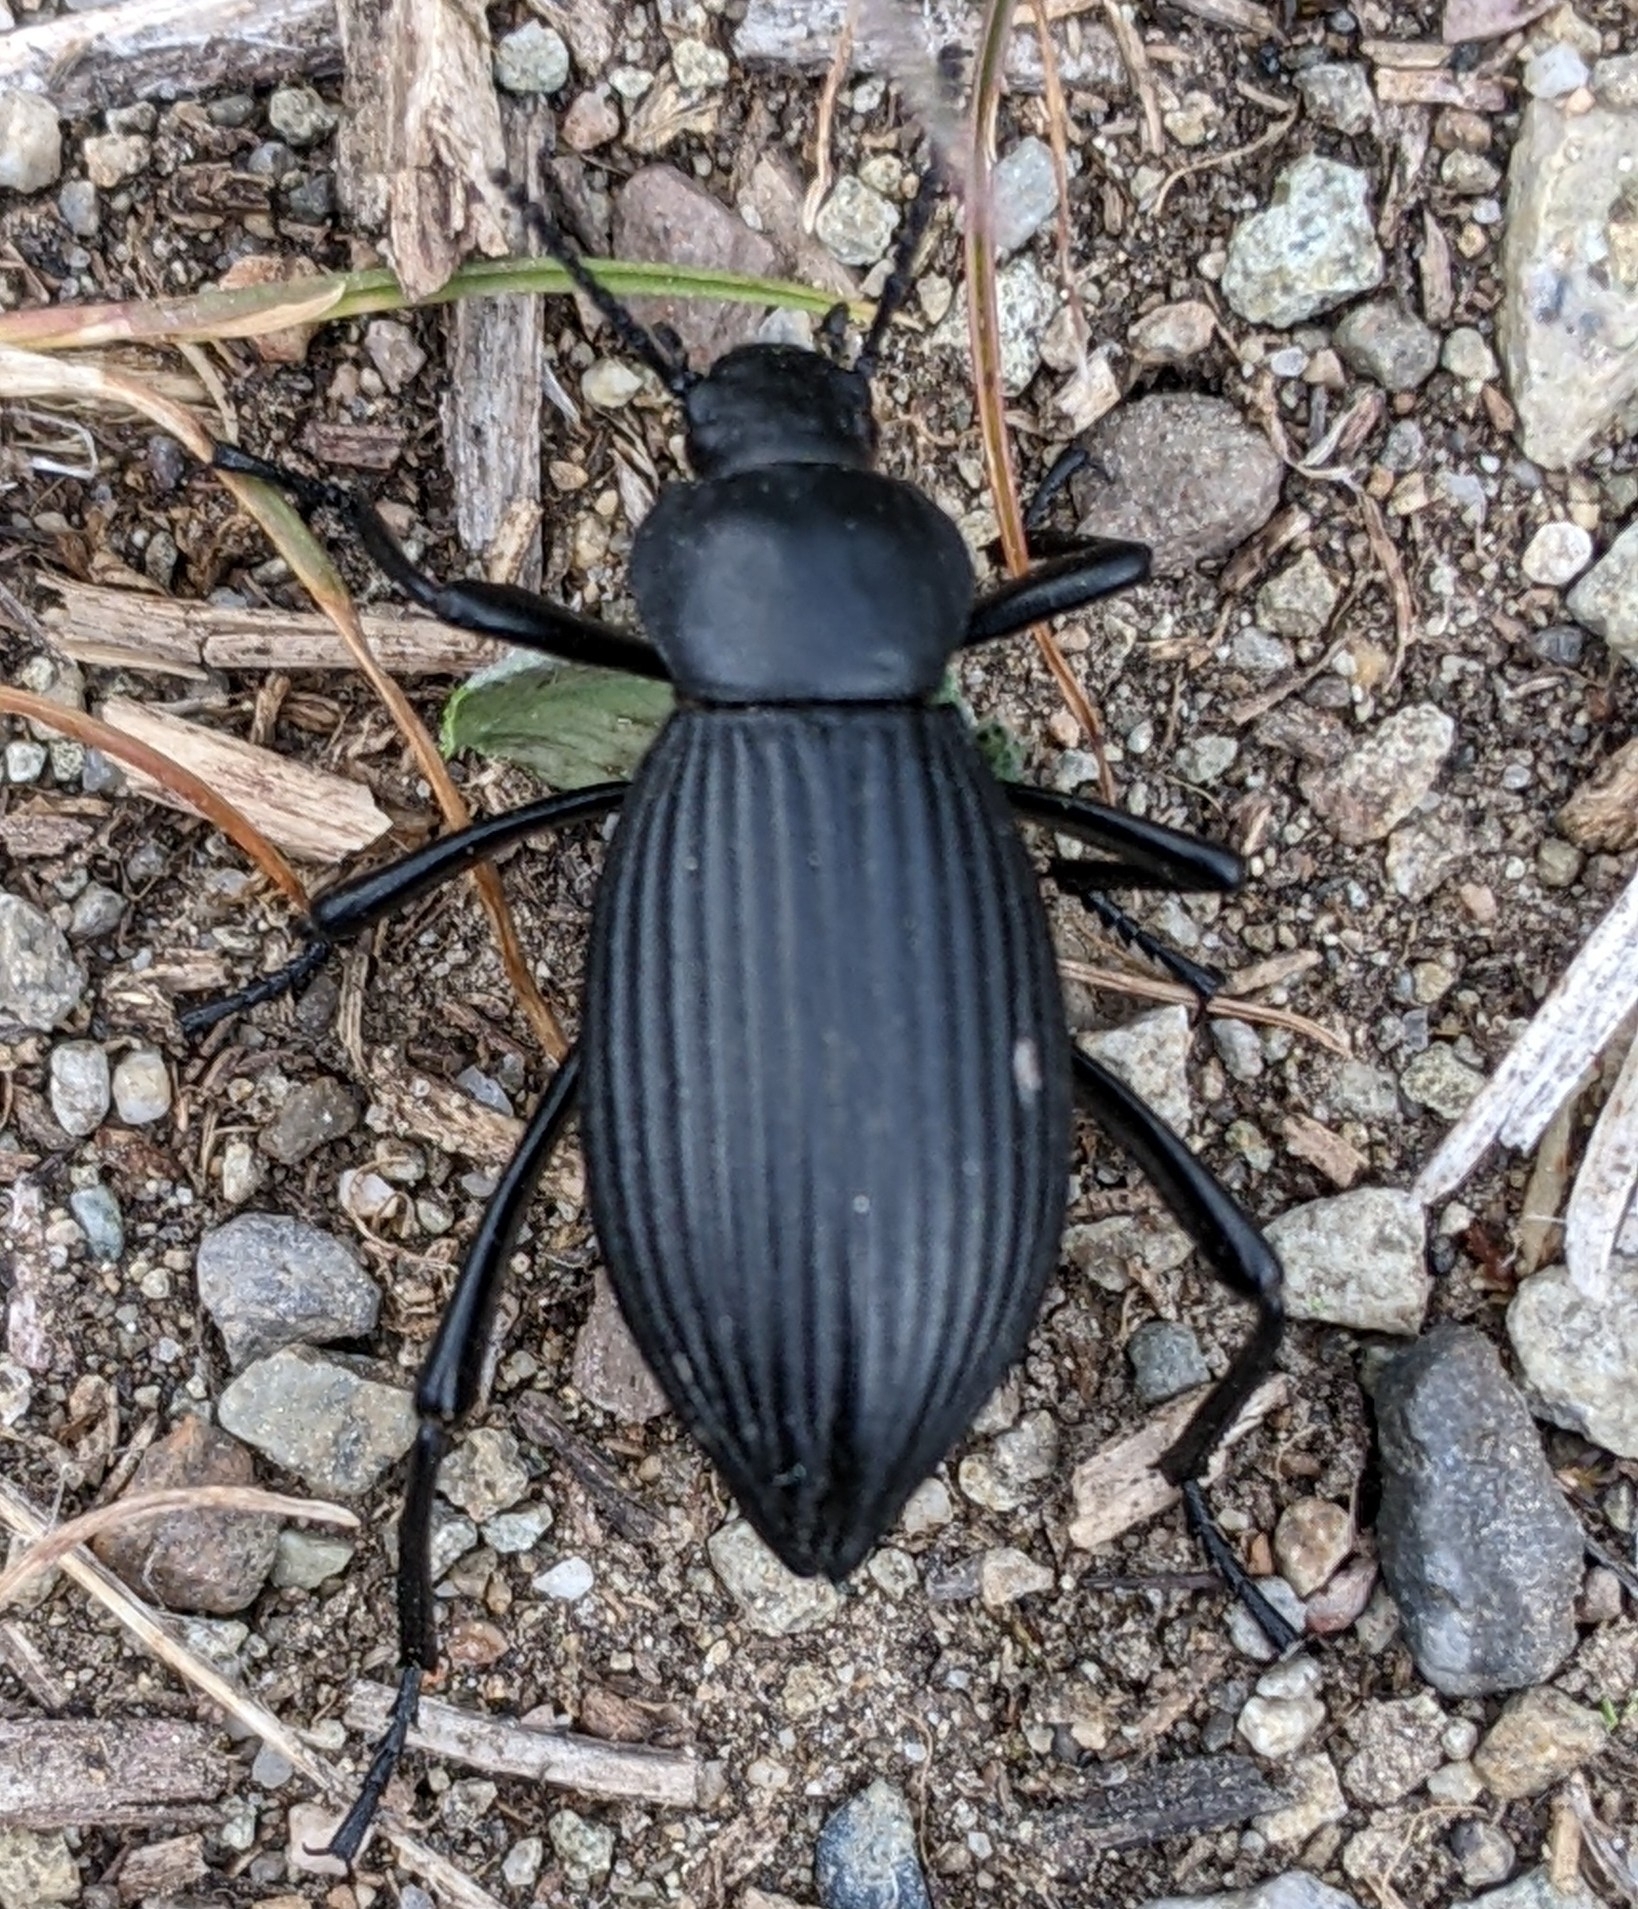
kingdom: Animalia
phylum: Arthropoda
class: Insecta
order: Coleoptera
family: Tenebrionidae
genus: Eleodes
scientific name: Eleodes hispilabris
